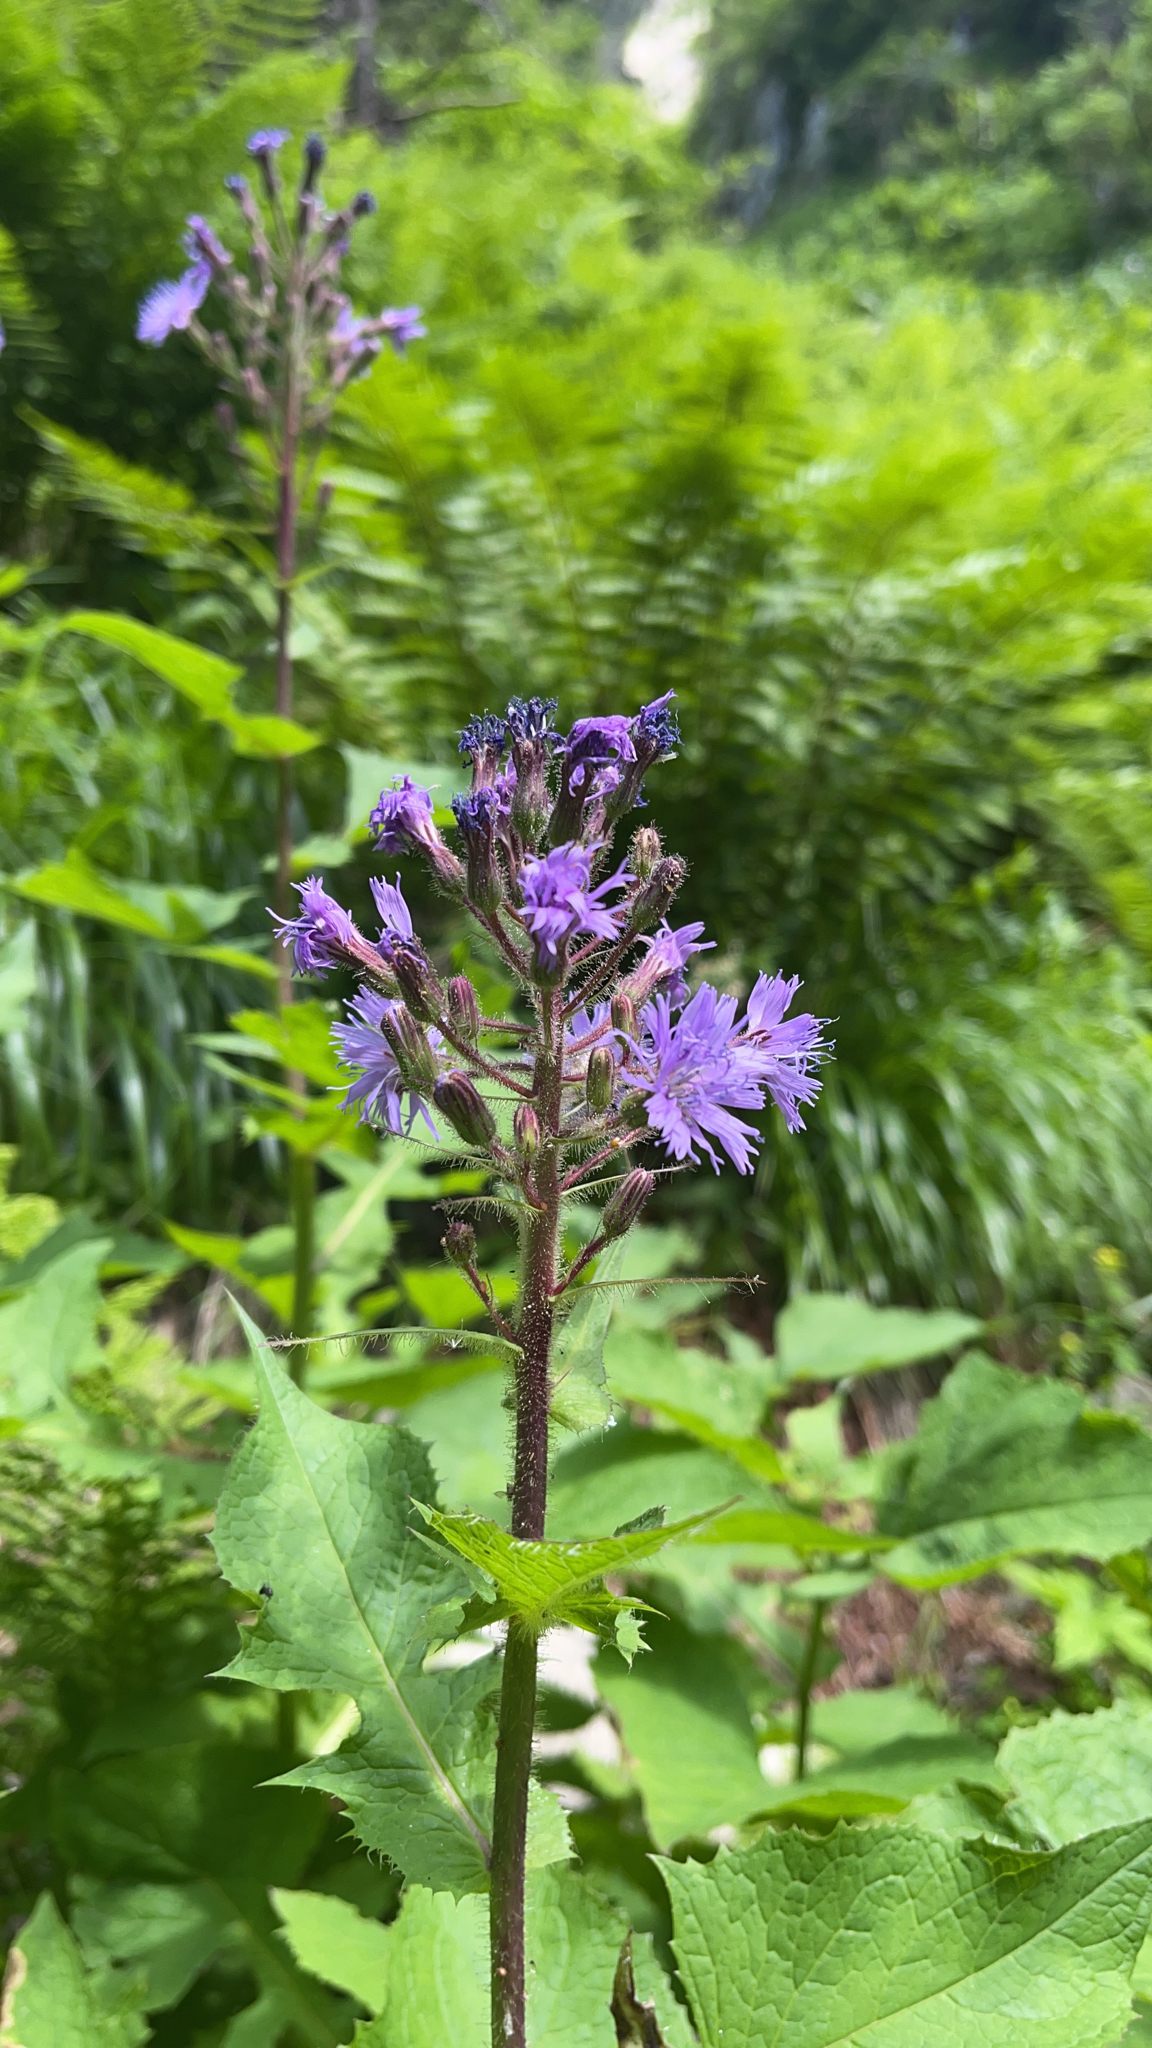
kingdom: Plantae
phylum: Tracheophyta
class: Magnoliopsida
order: Asterales
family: Asteraceae
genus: Cicerbita
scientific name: Cicerbita alpina
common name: Alpine blue-sow-thistle
